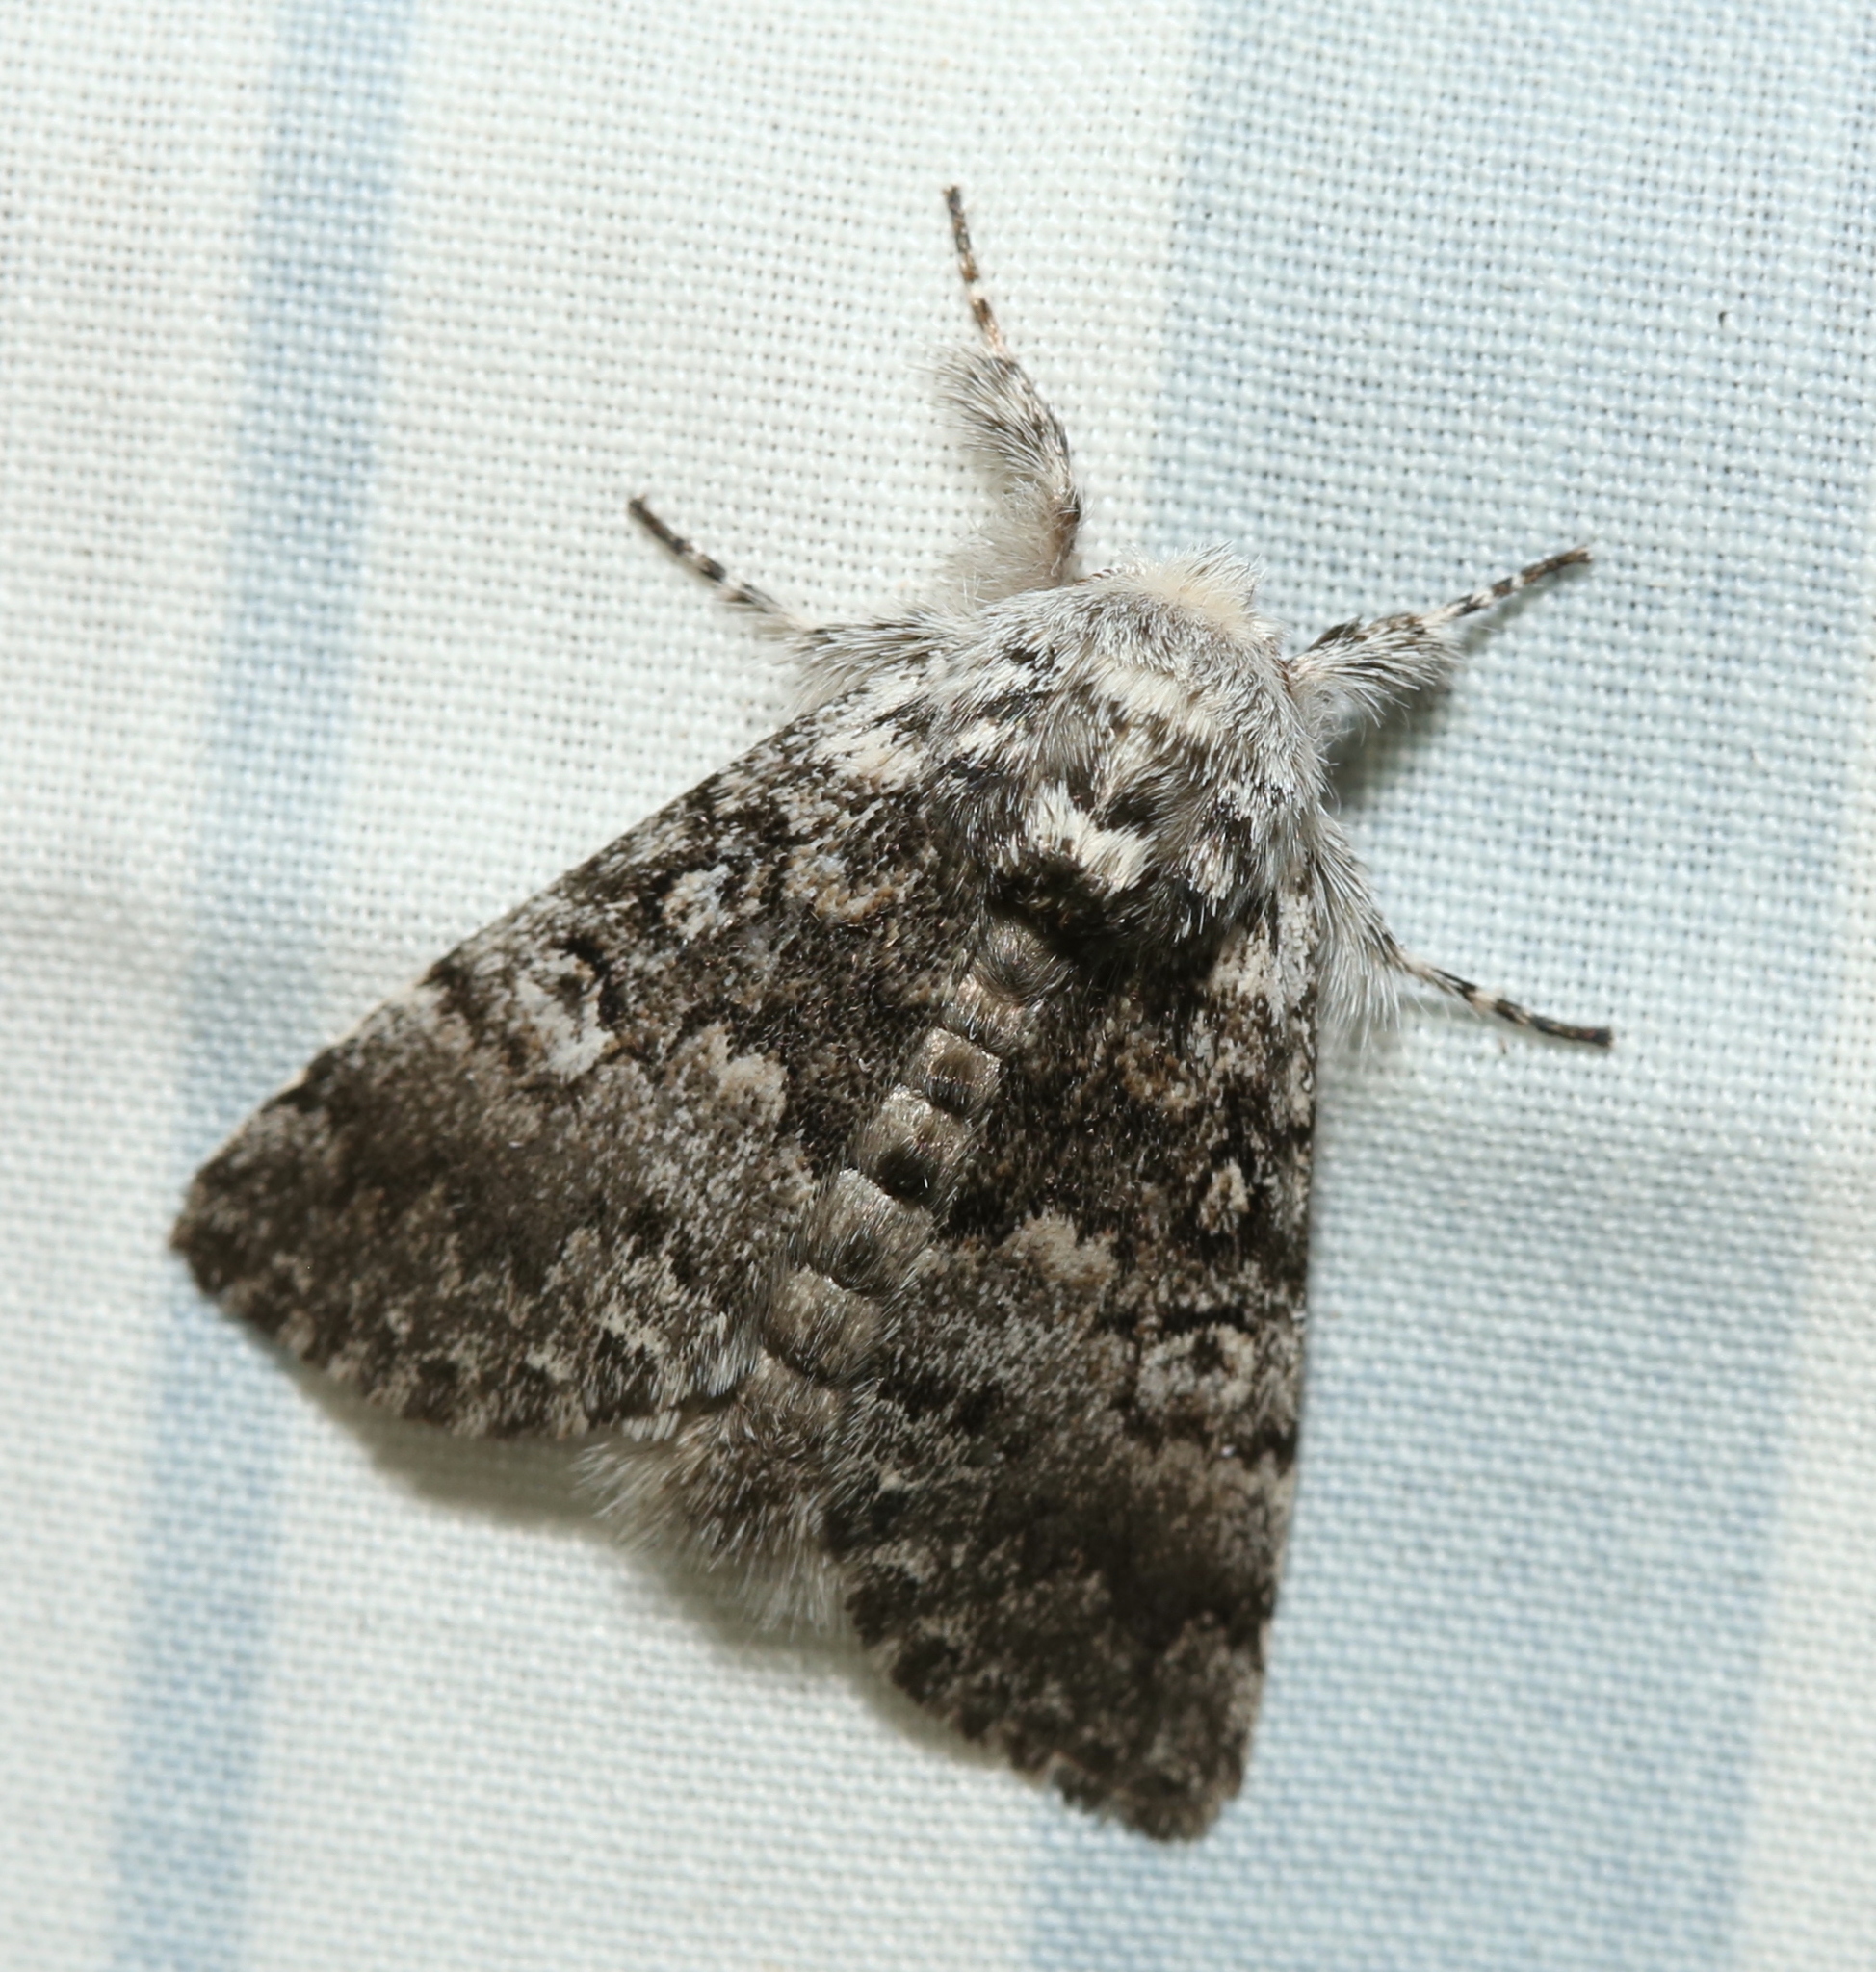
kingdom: Animalia
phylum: Arthropoda
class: Insecta
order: Lepidoptera
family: Noctuidae
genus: Colocasia
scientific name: Colocasia propinquilinea
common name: Close-banded demas
